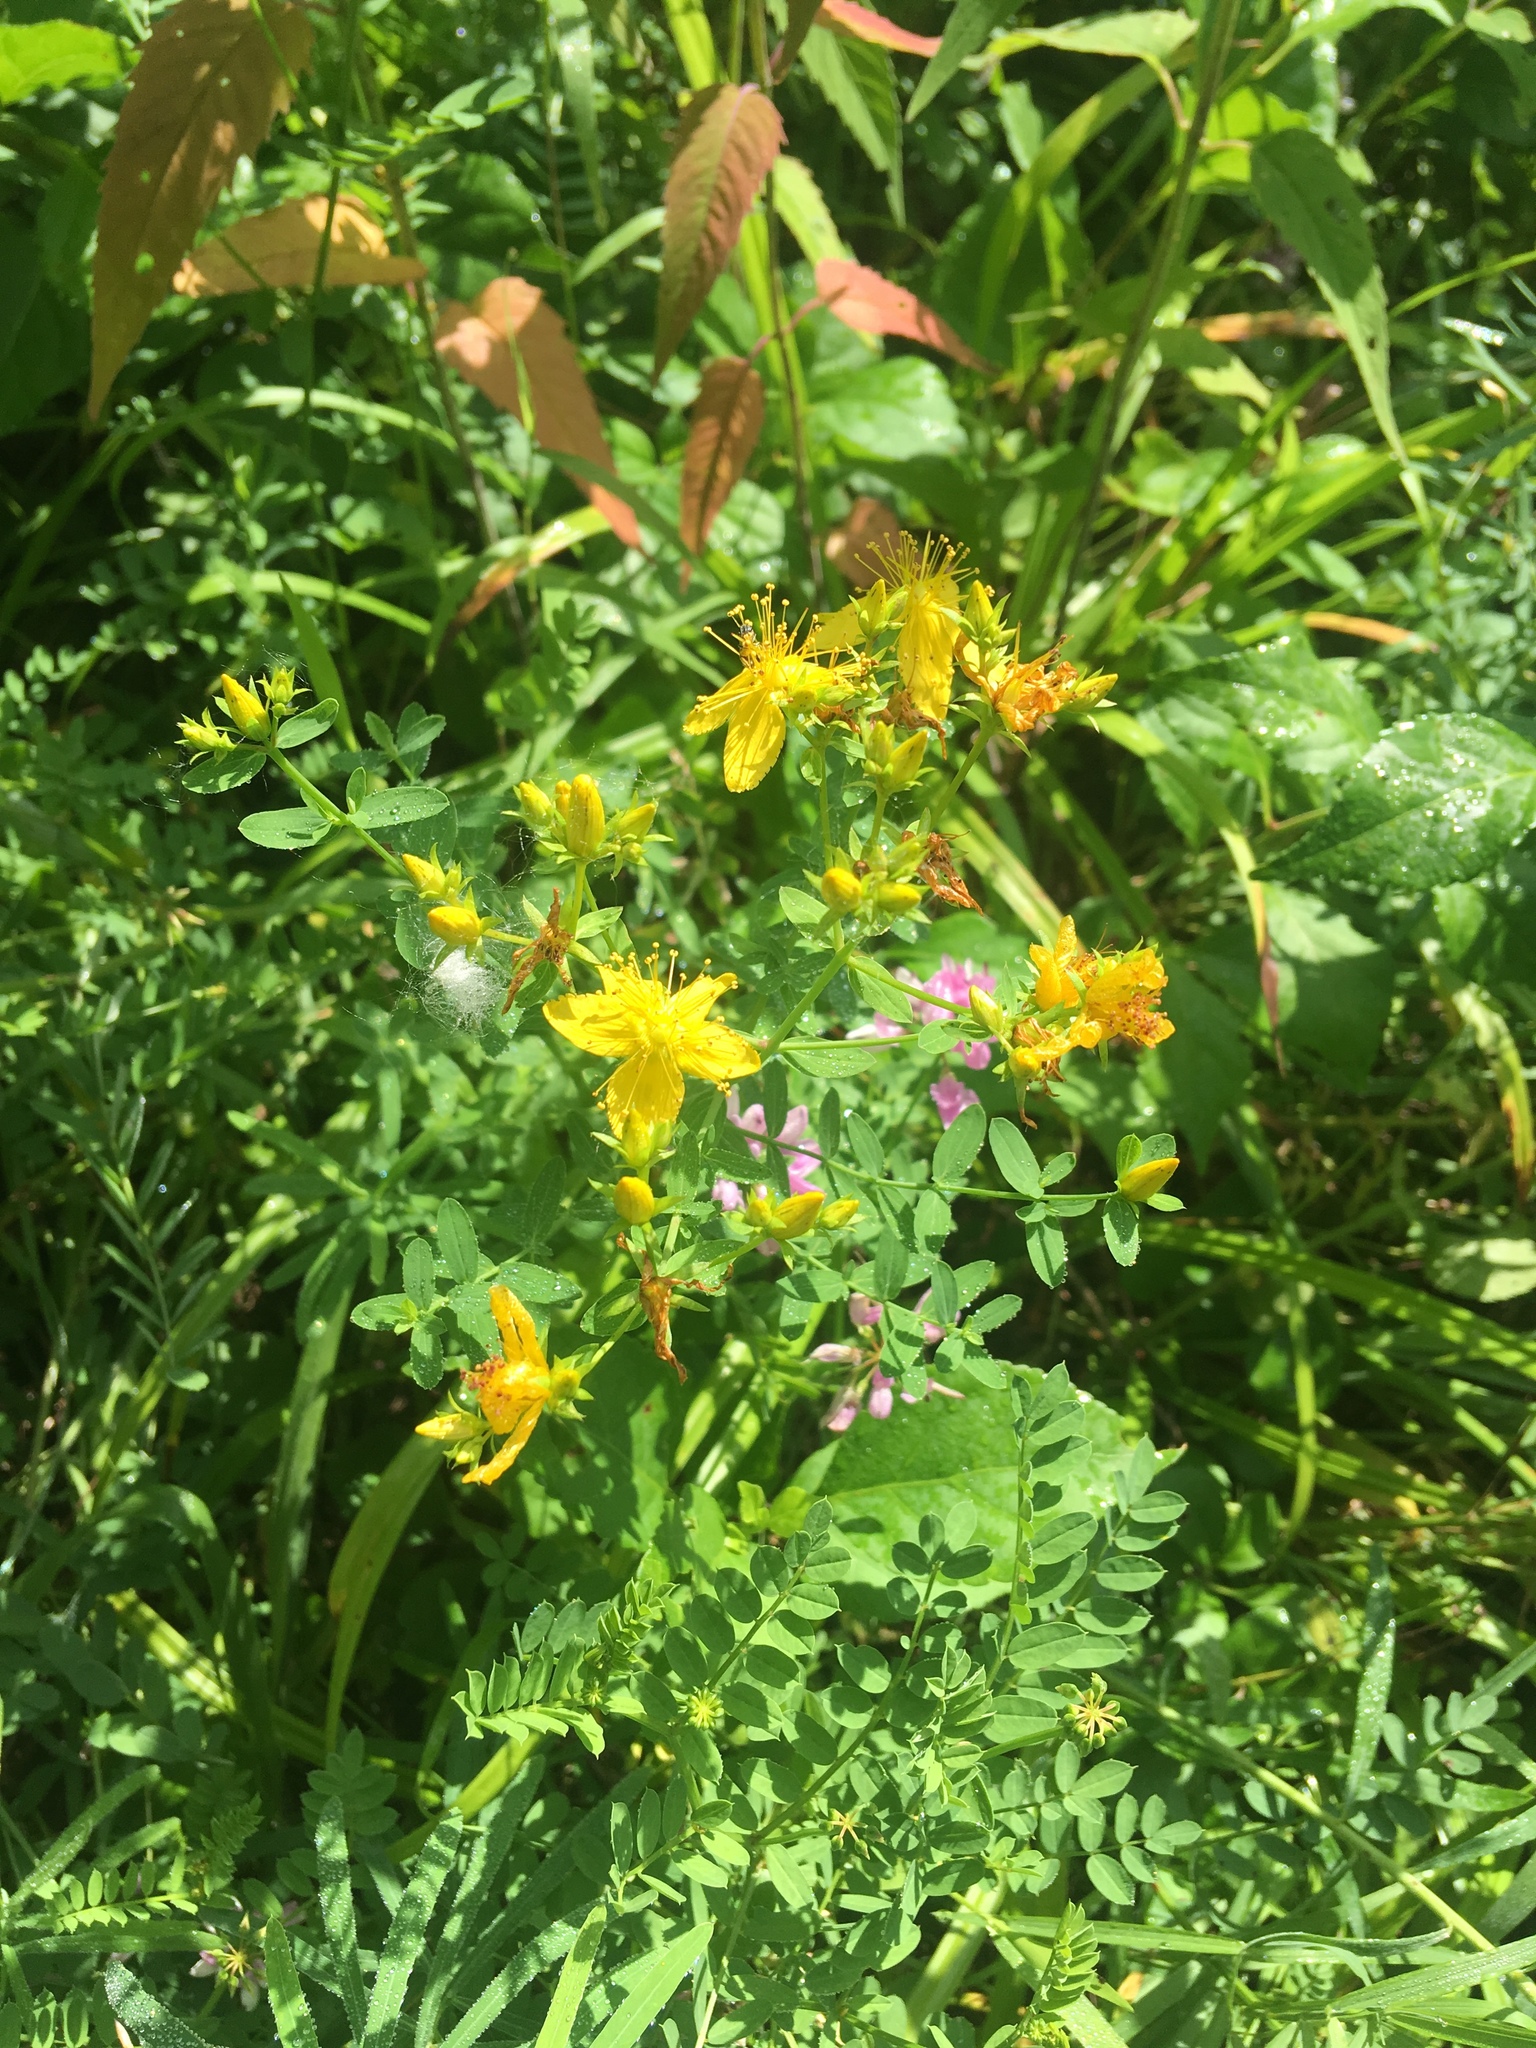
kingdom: Plantae
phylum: Tracheophyta
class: Magnoliopsida
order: Malpighiales
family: Hypericaceae
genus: Hypericum
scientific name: Hypericum perforatum
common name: Common st. johnswort
